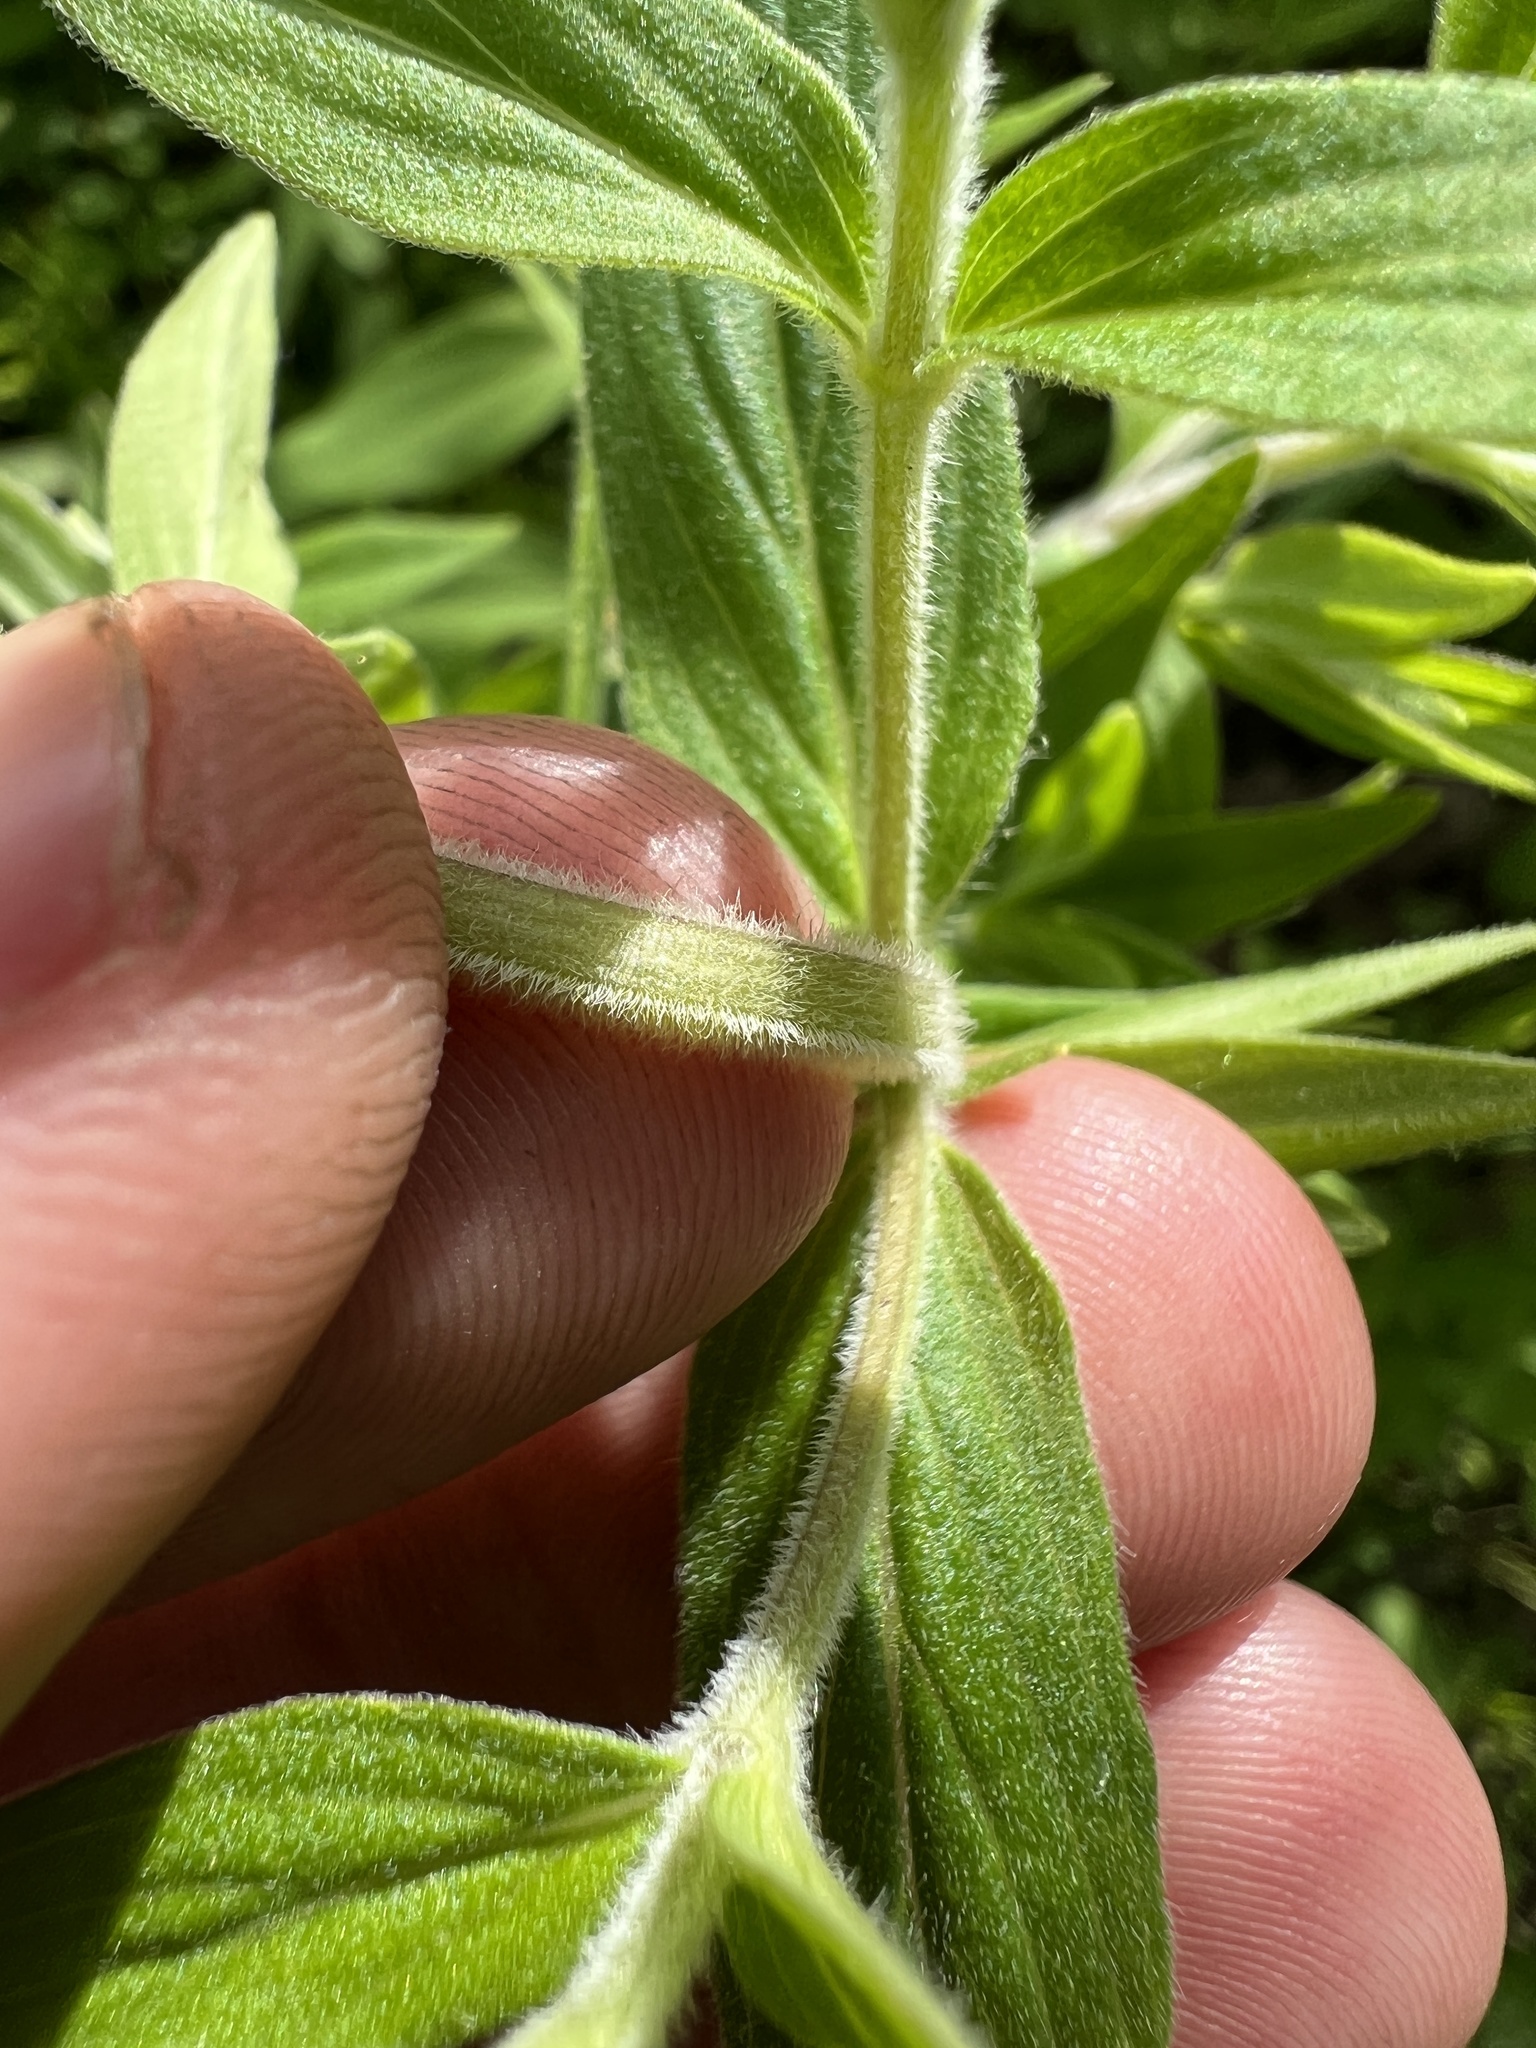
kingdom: Plantae
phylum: Tracheophyta
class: Magnoliopsida
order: Lamiales
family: Lamiaceae
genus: Pycnanthemum
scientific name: Pycnanthemum verticillatum
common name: Whorled mountain-mint
